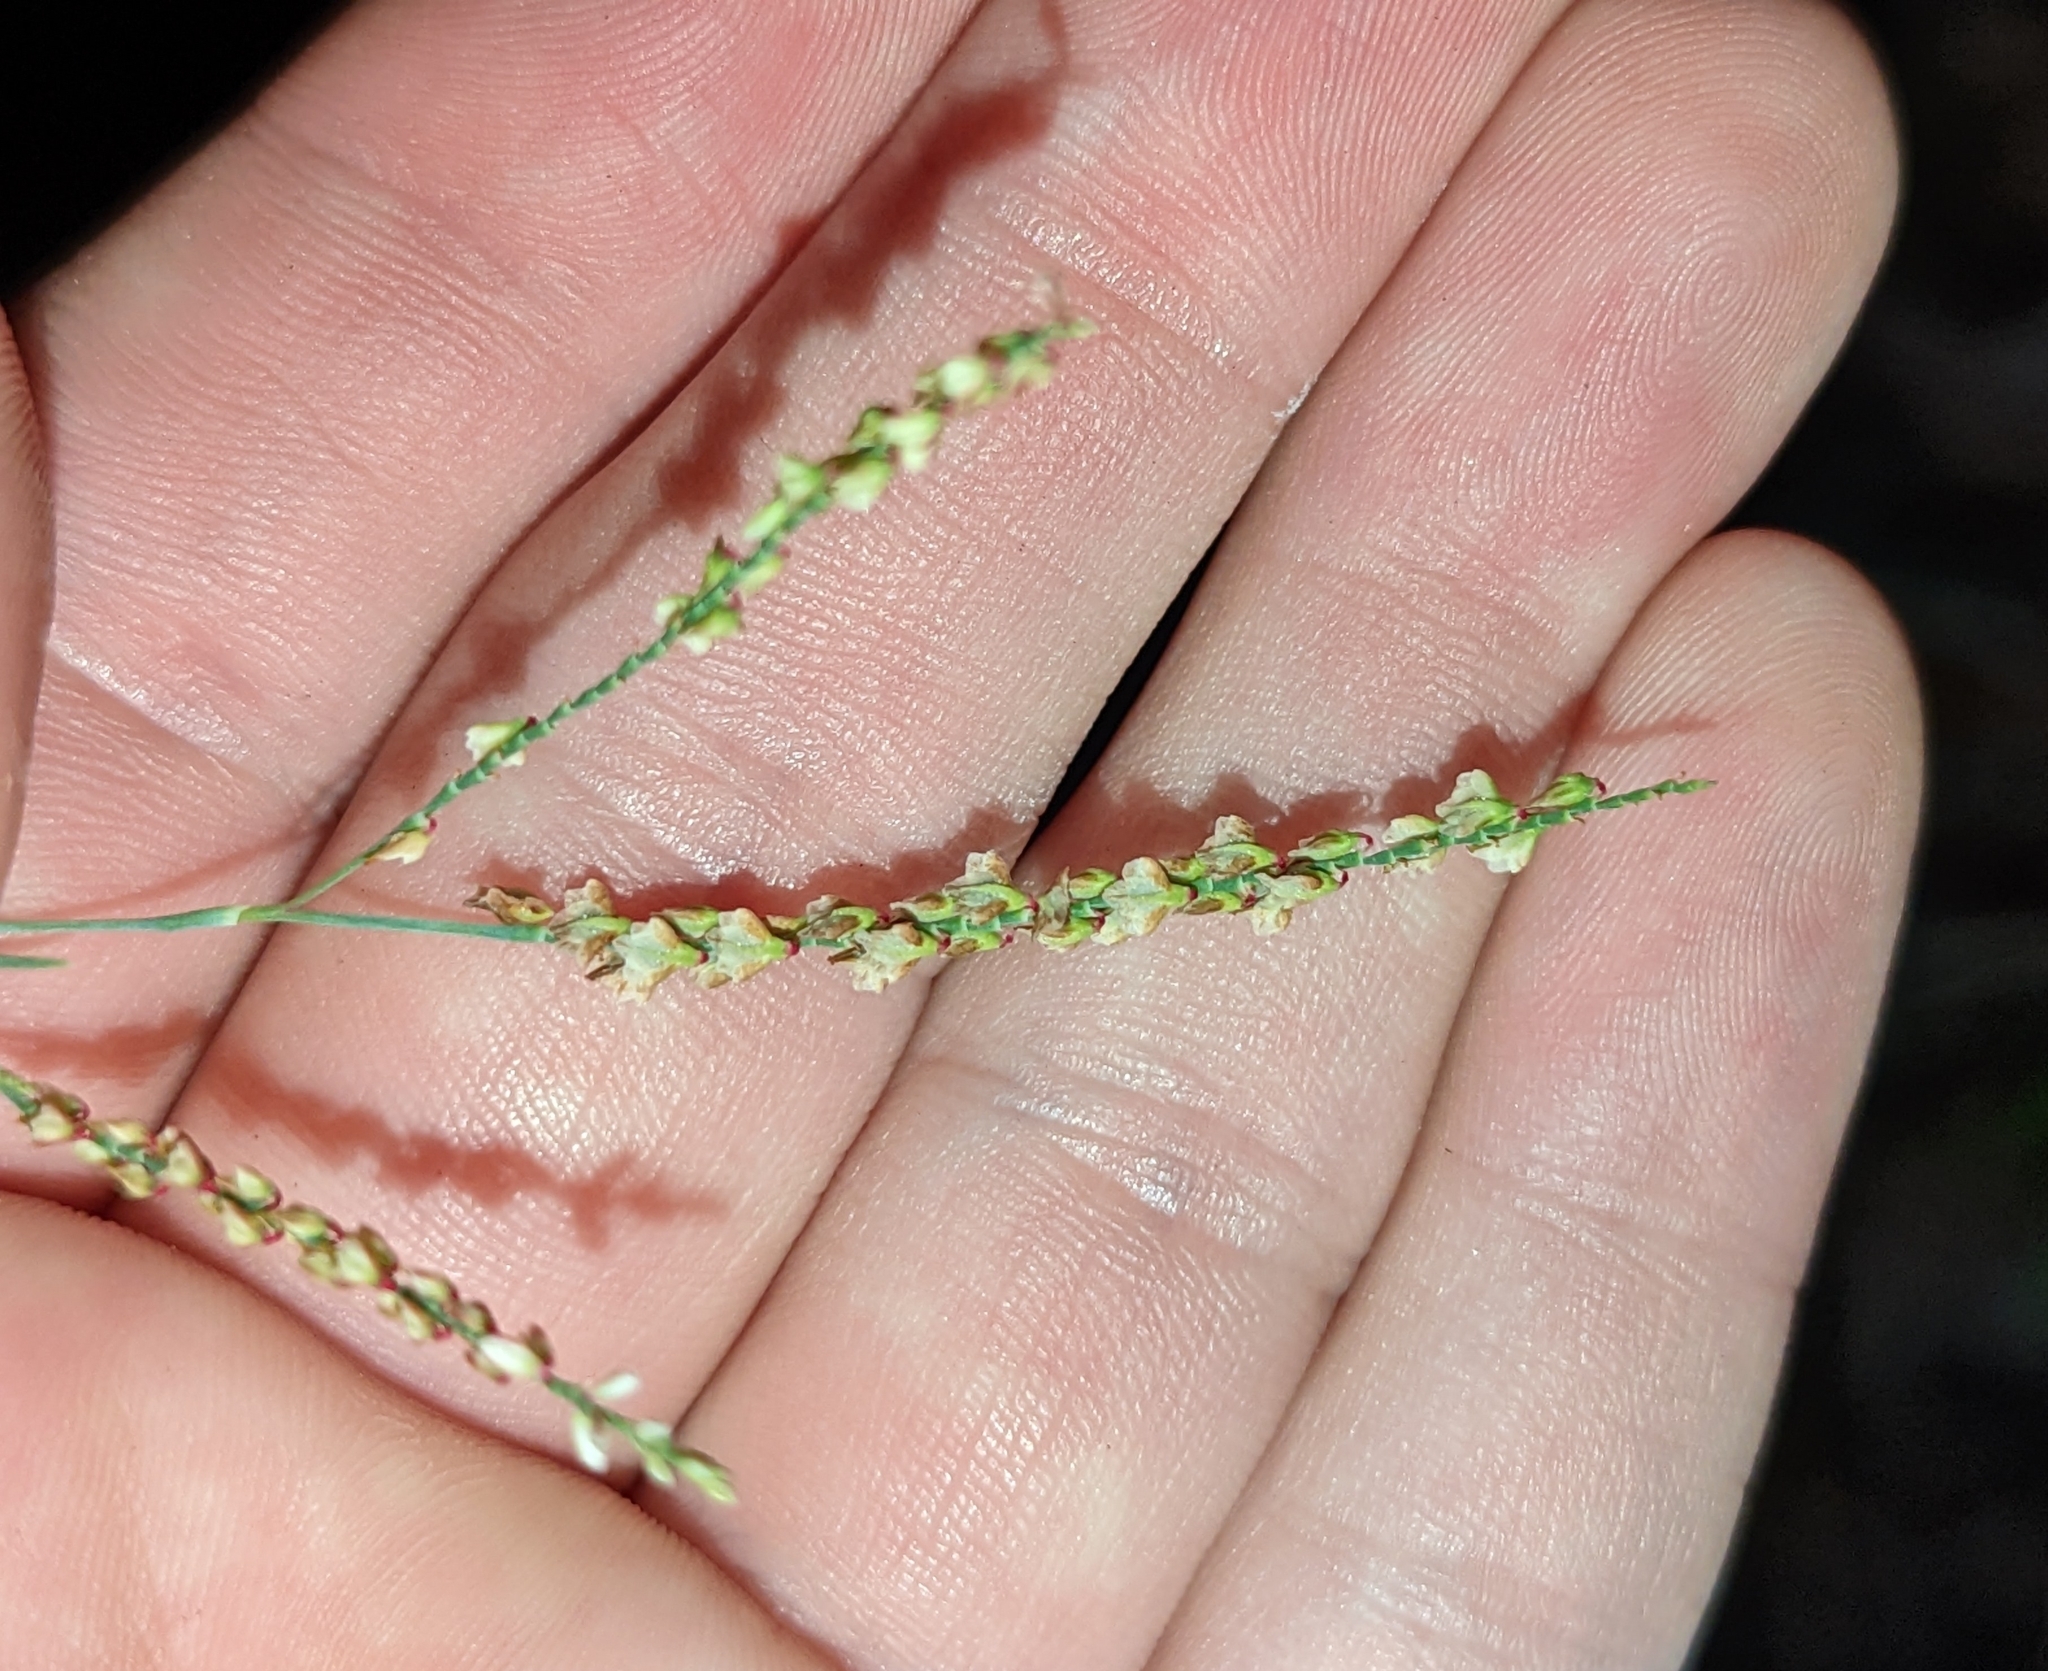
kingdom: Plantae
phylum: Tracheophyta
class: Magnoliopsida
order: Caryophyllales
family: Polygonaceae
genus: Polygonella
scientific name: Polygonella gracilis
